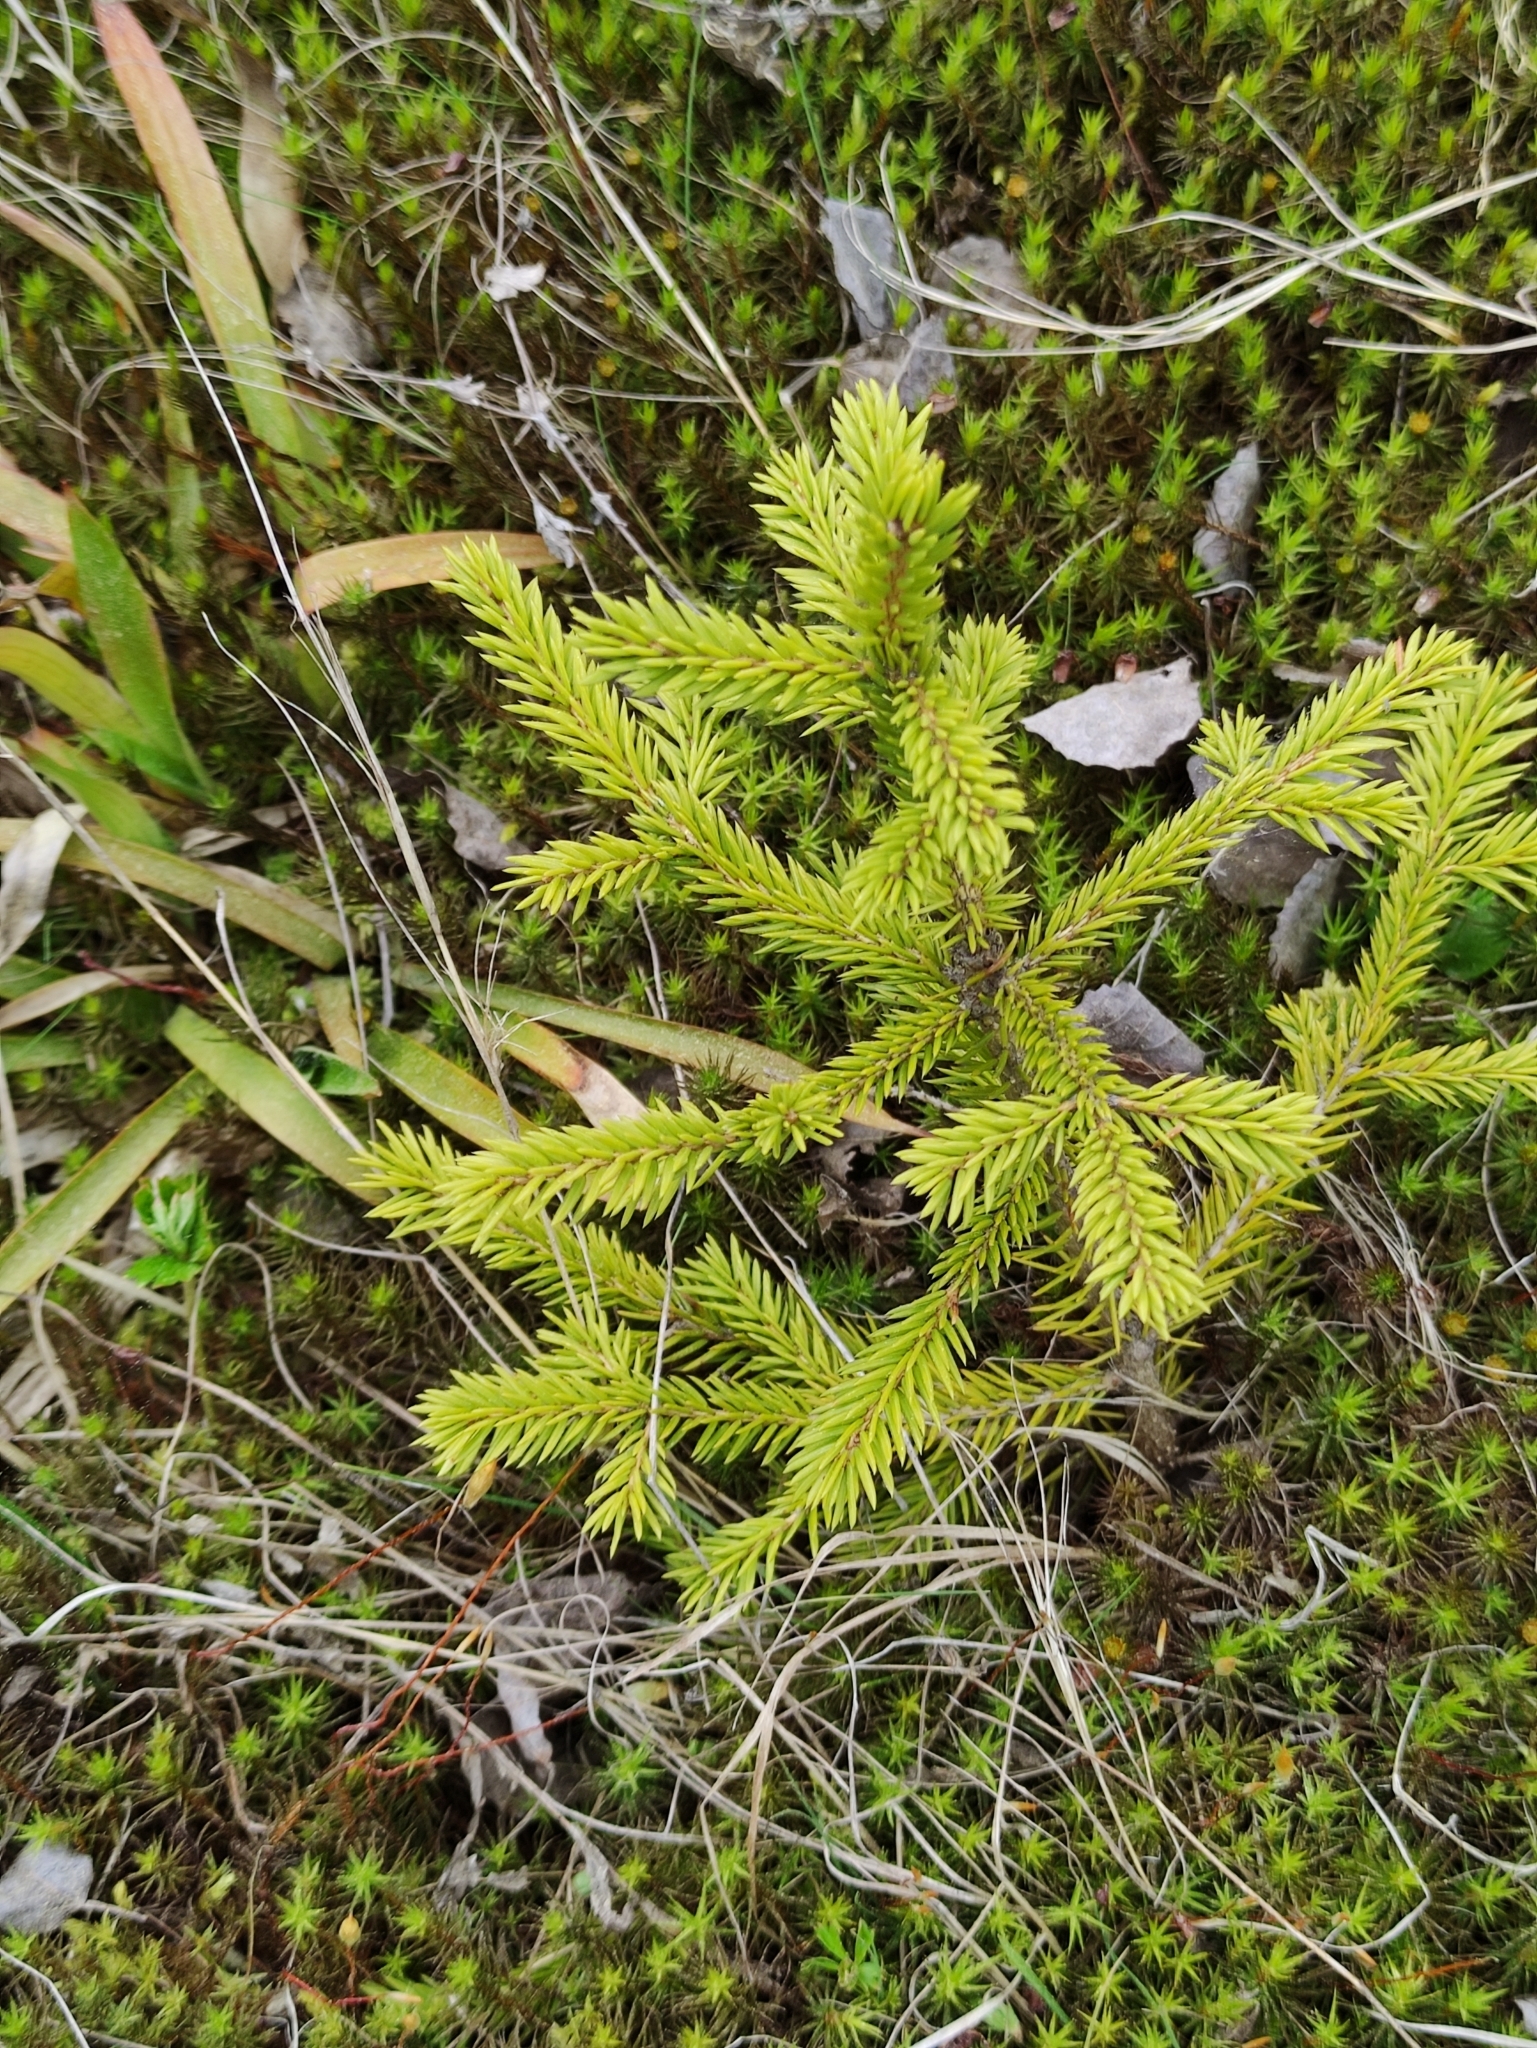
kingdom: Plantae
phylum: Tracheophyta
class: Pinopsida
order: Pinales
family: Pinaceae
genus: Picea
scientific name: Picea abies
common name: Norway spruce
